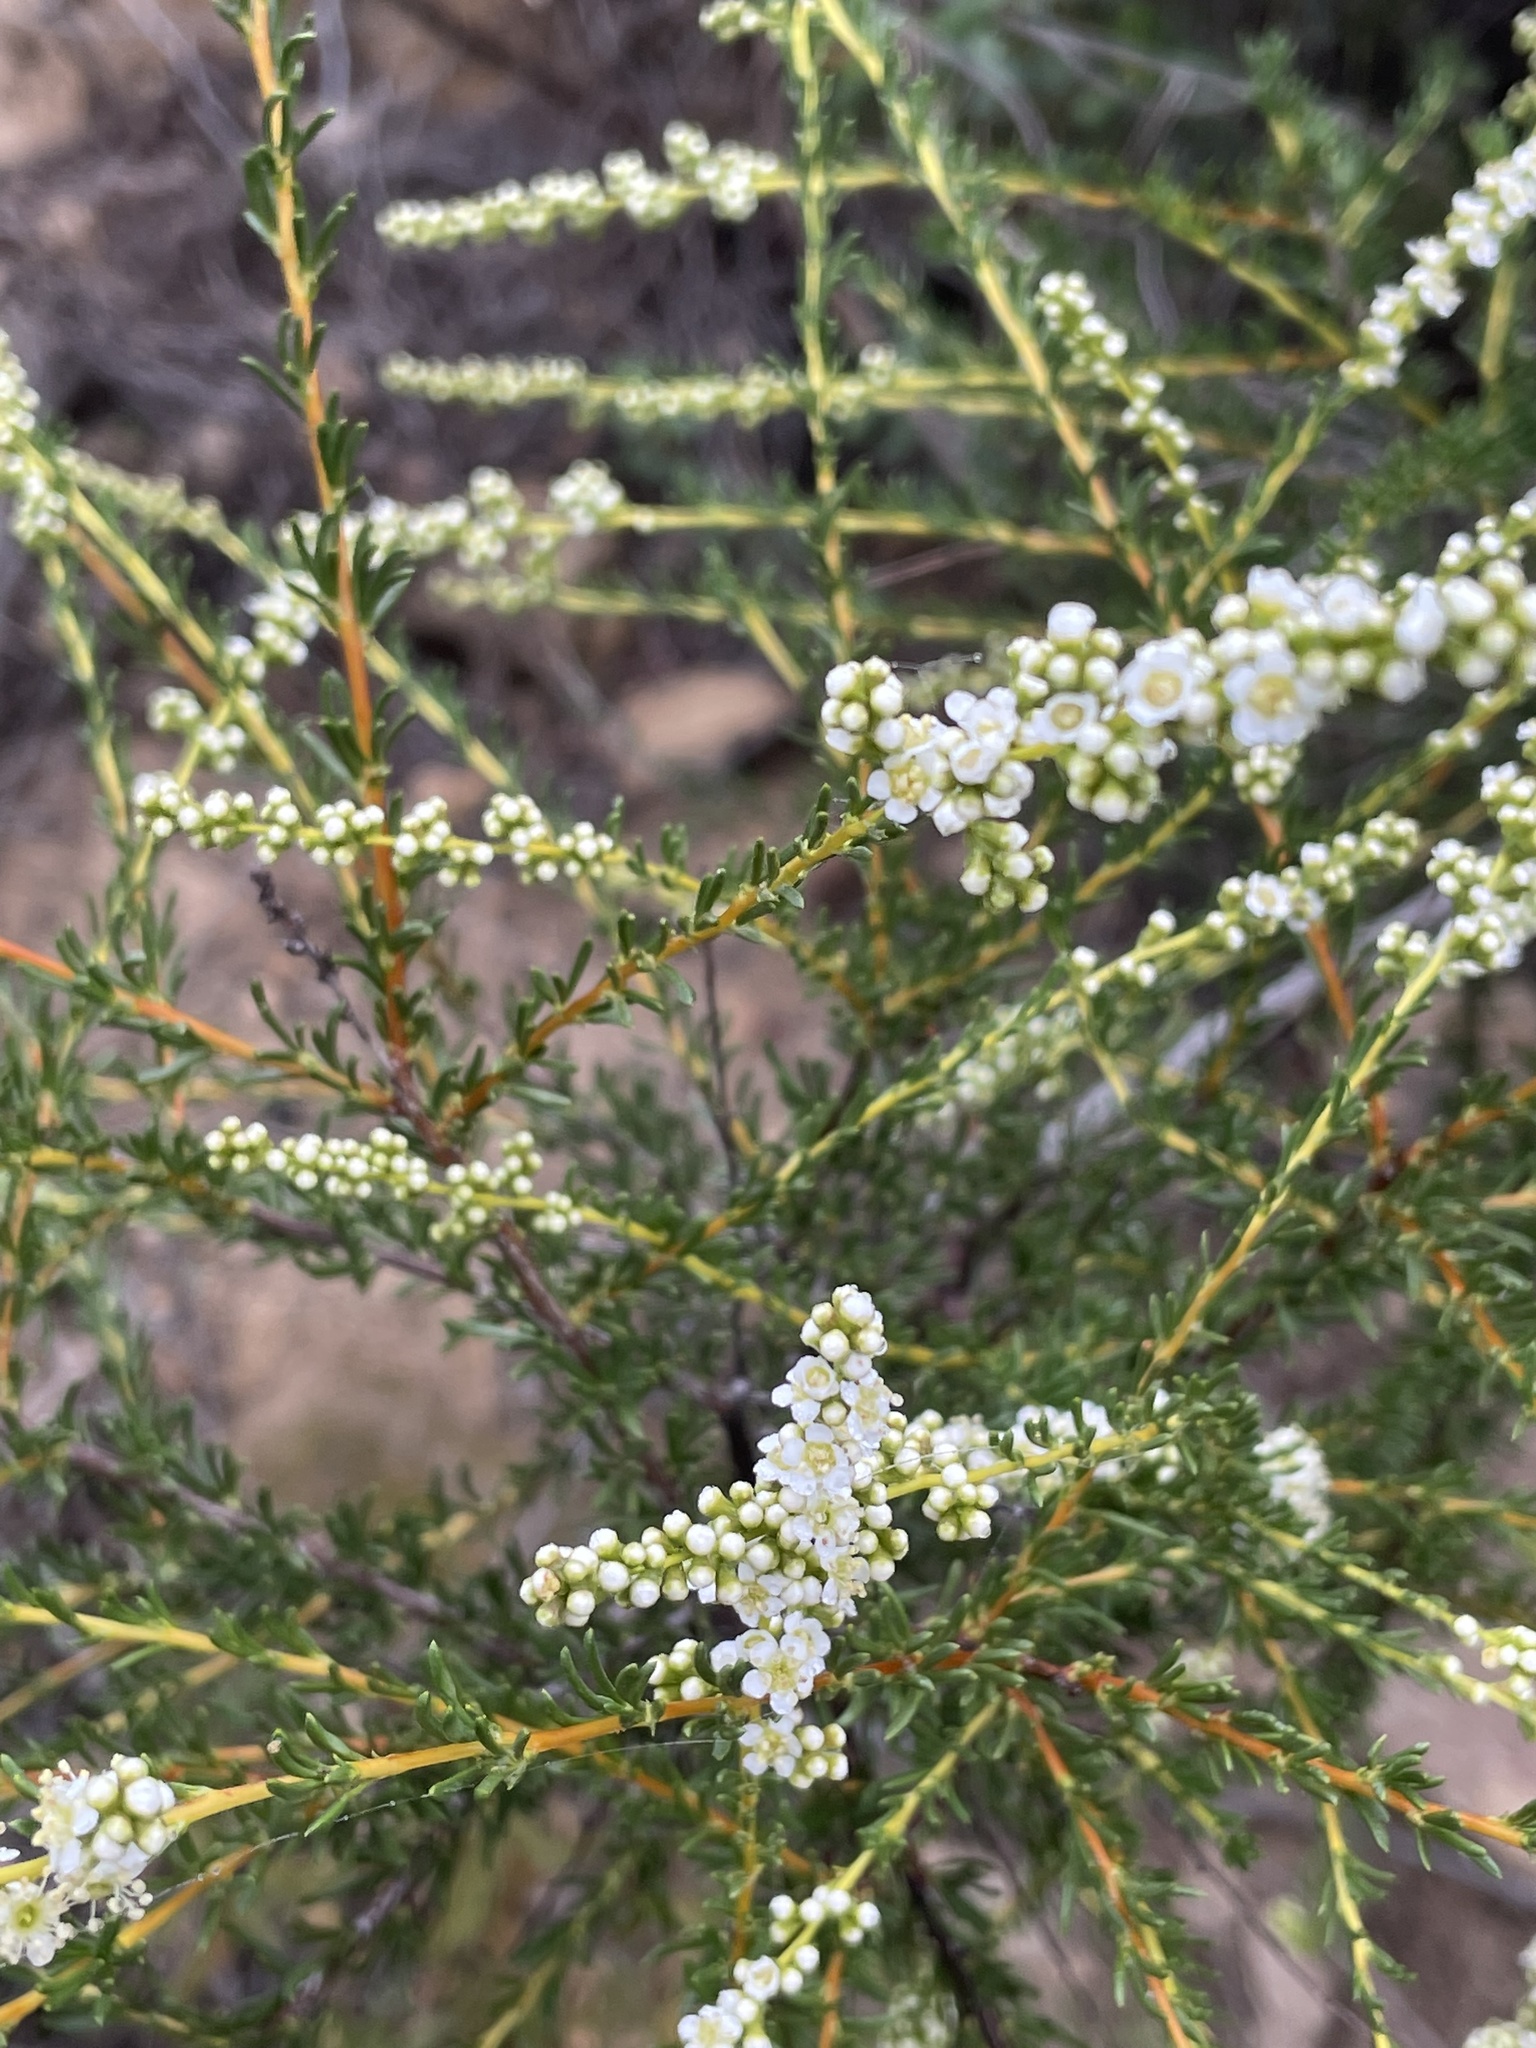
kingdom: Plantae
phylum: Tracheophyta
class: Magnoliopsida
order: Rosales
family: Rosaceae
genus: Adenostoma
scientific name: Adenostoma fasciculatum
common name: Chamise
